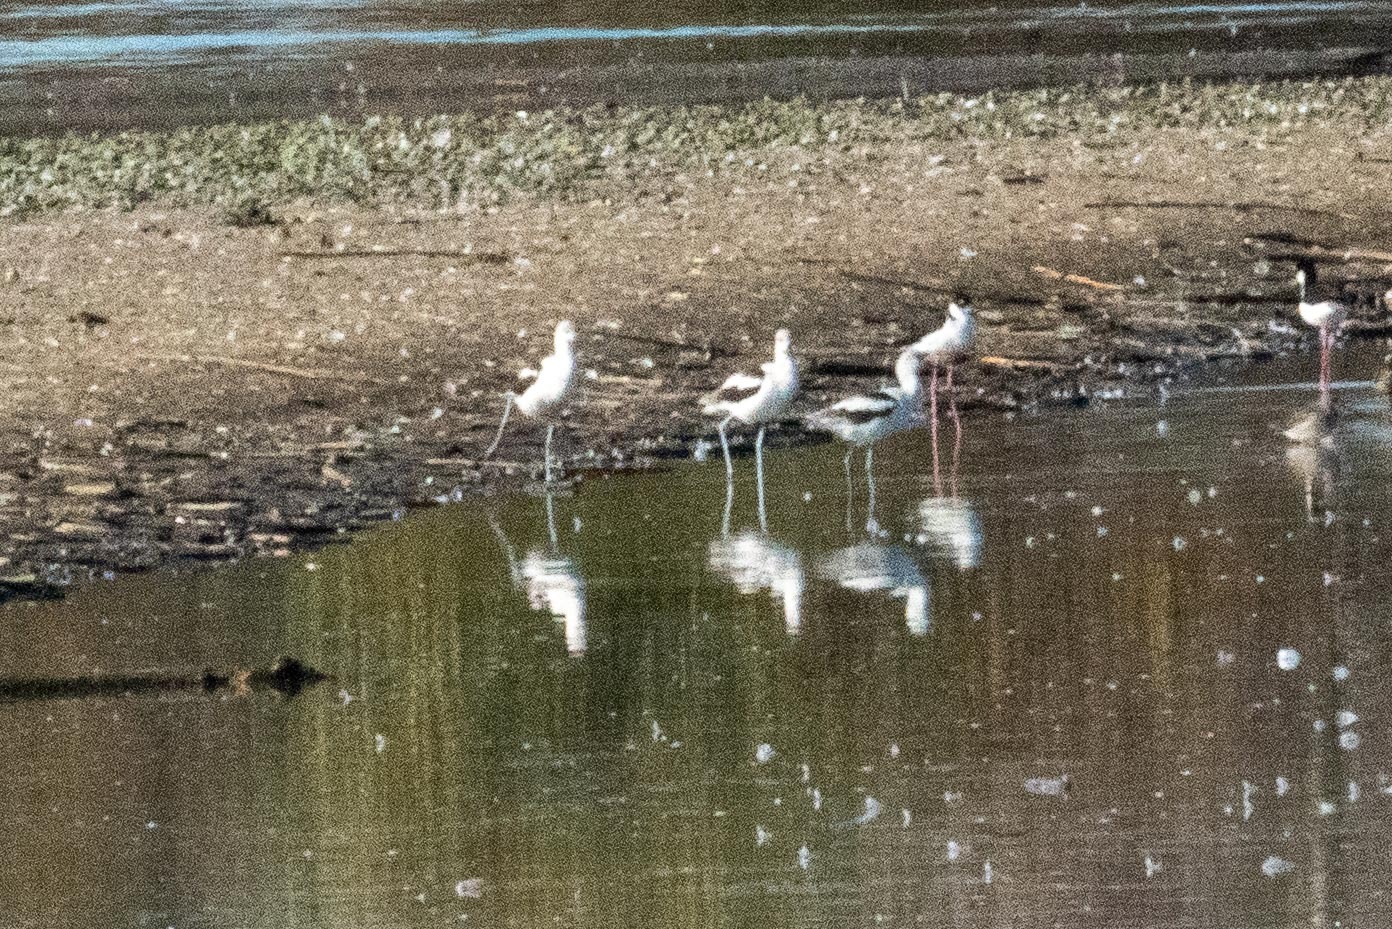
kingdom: Animalia
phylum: Chordata
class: Aves
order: Charadriiformes
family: Recurvirostridae
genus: Recurvirostra
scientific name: Recurvirostra americana
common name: American avocet
